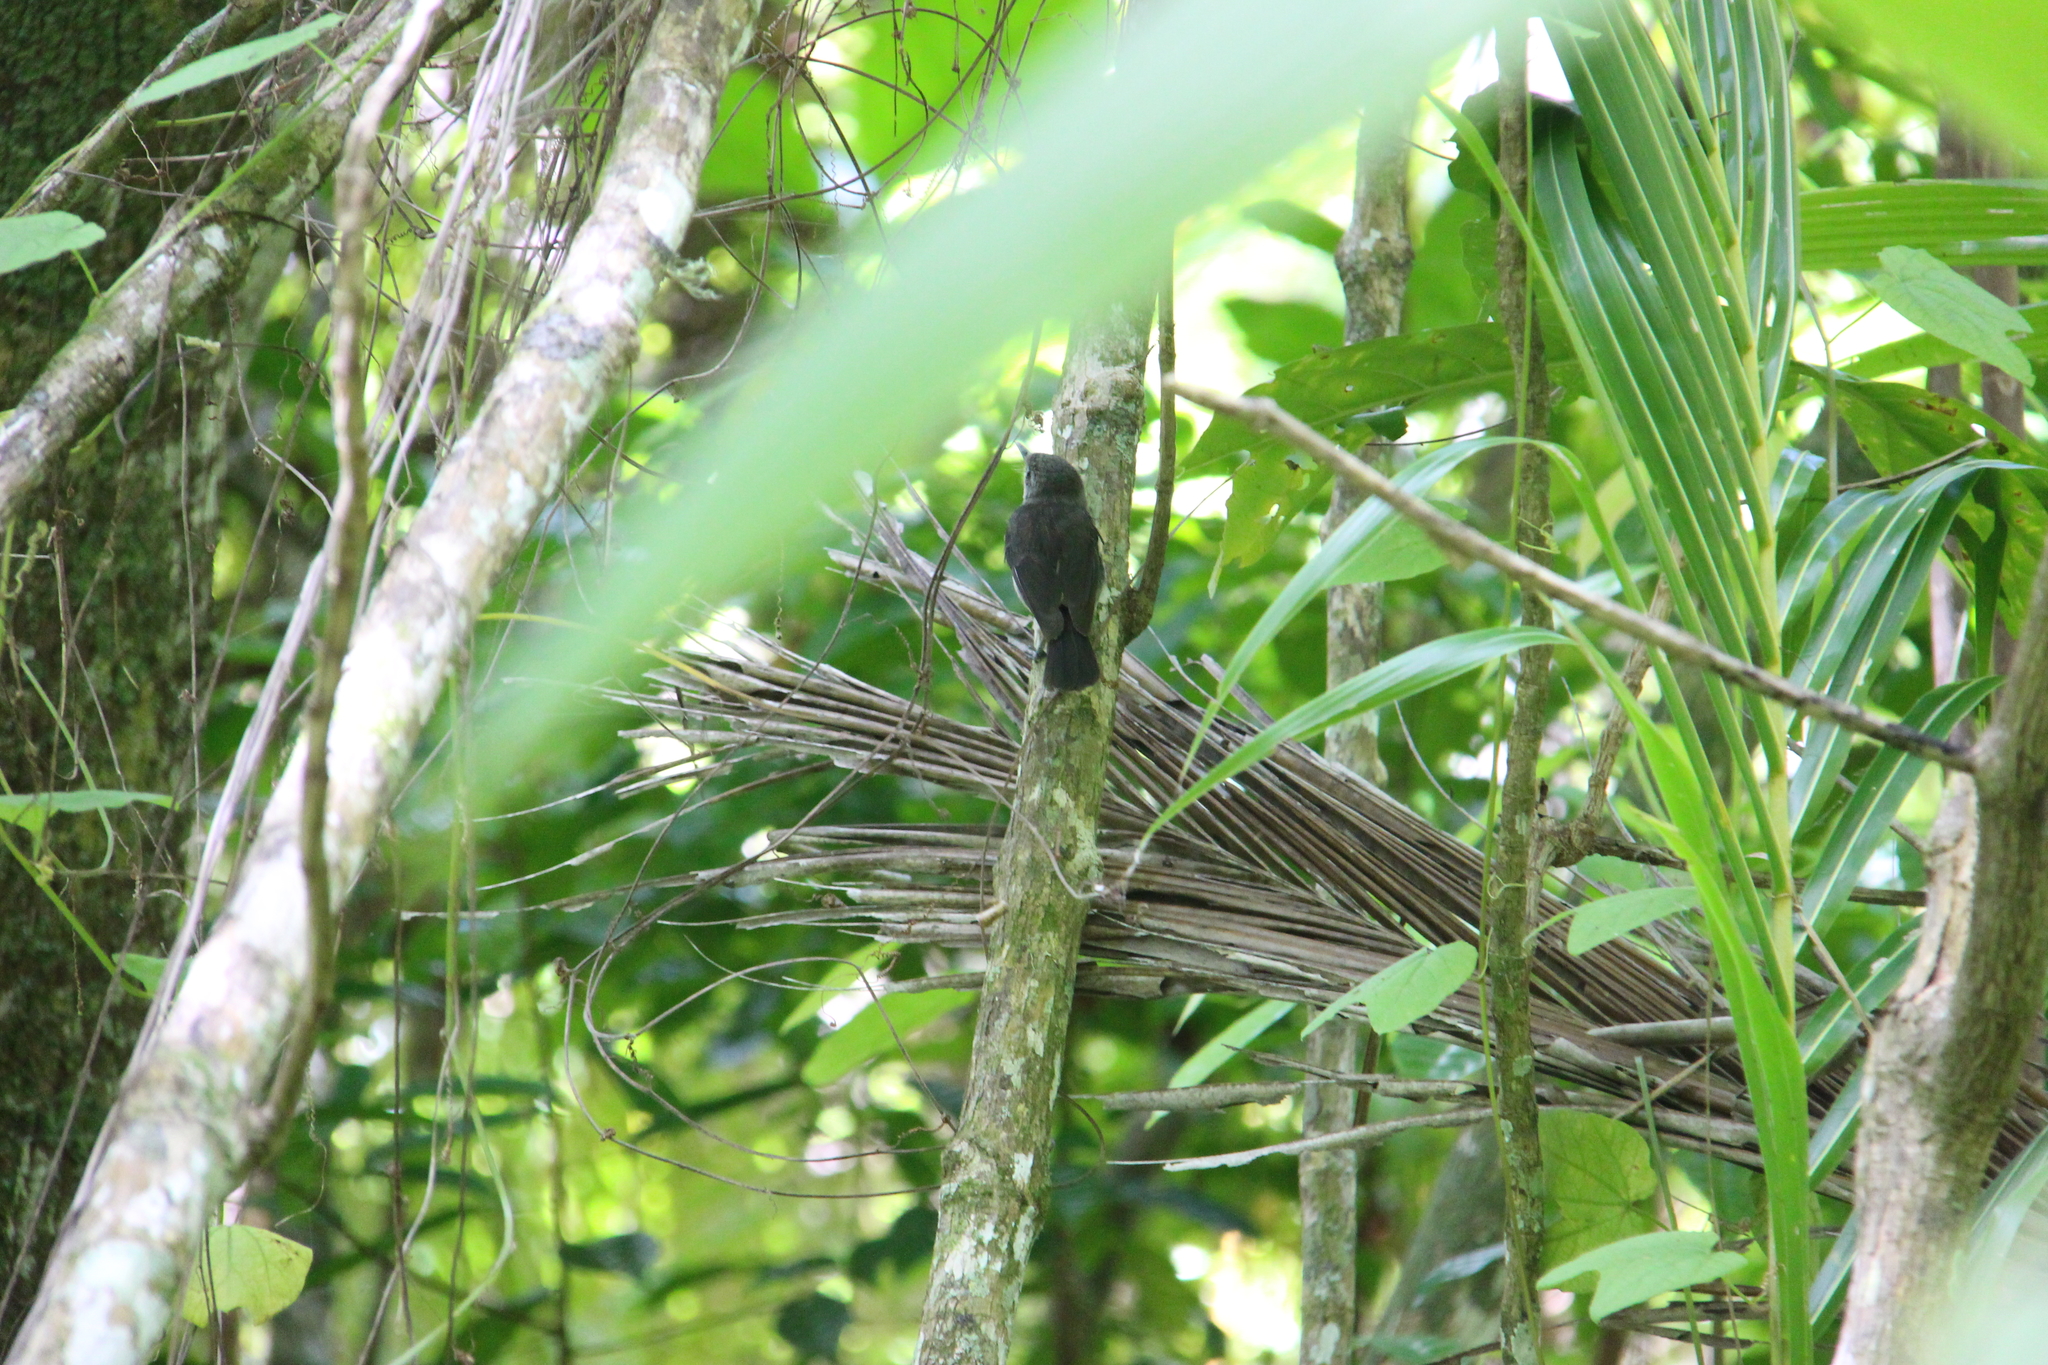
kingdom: Animalia
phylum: Chordata
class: Aves
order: Passeriformes
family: Monarchidae
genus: Pomarea
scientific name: Pomarea dimidiata
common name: Rarotonga monarch
